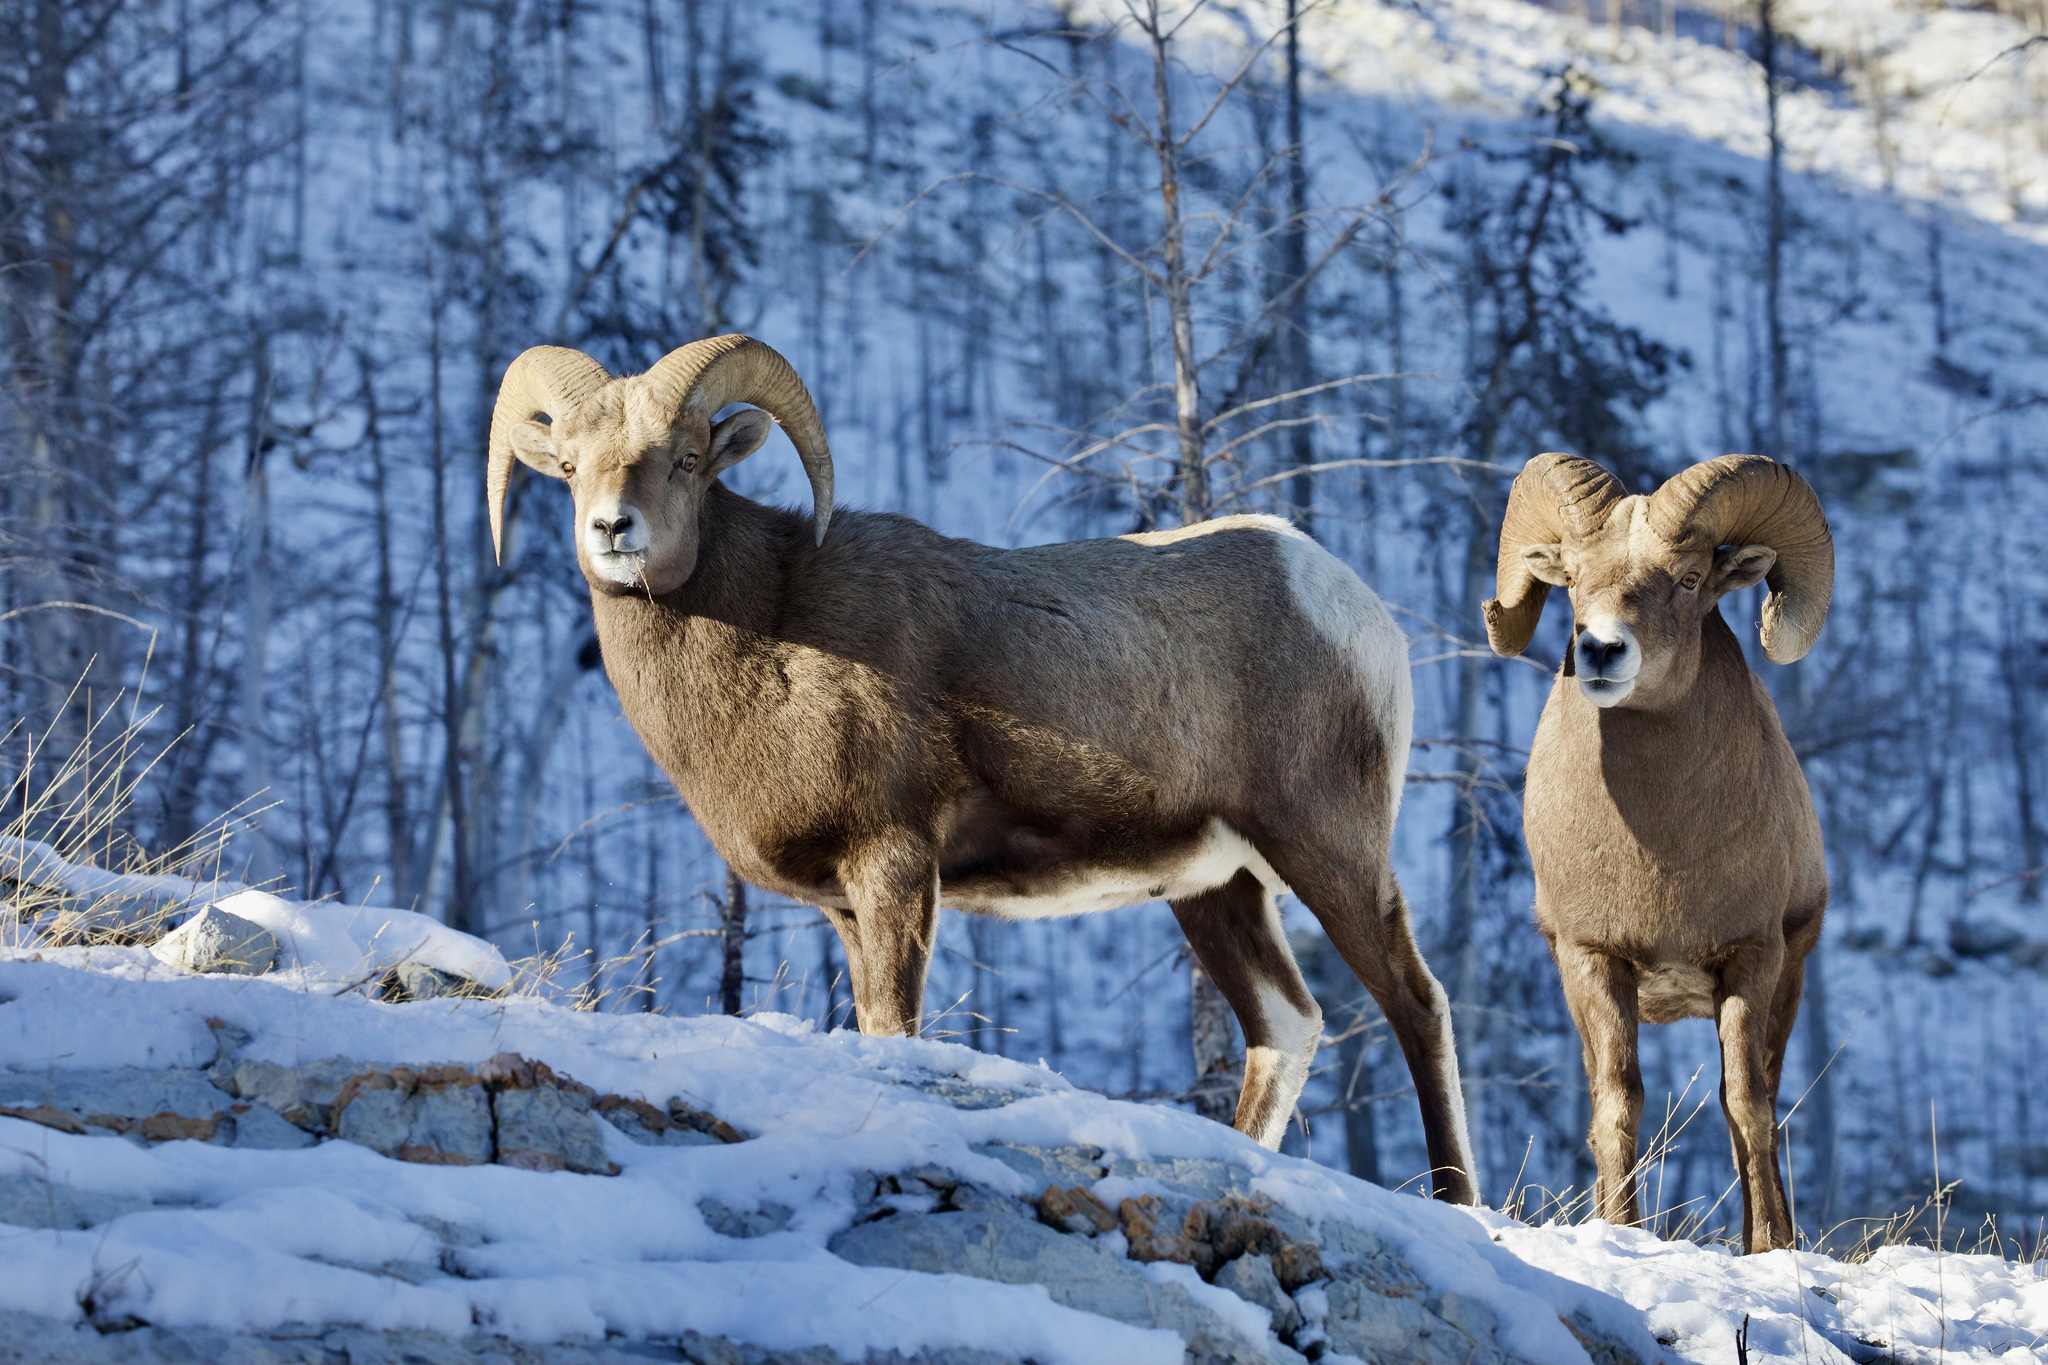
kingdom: Animalia
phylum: Chordata
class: Mammalia
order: Artiodactyla
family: Bovidae
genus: Ovis
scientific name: Ovis canadensis
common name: Bighorn sheep
